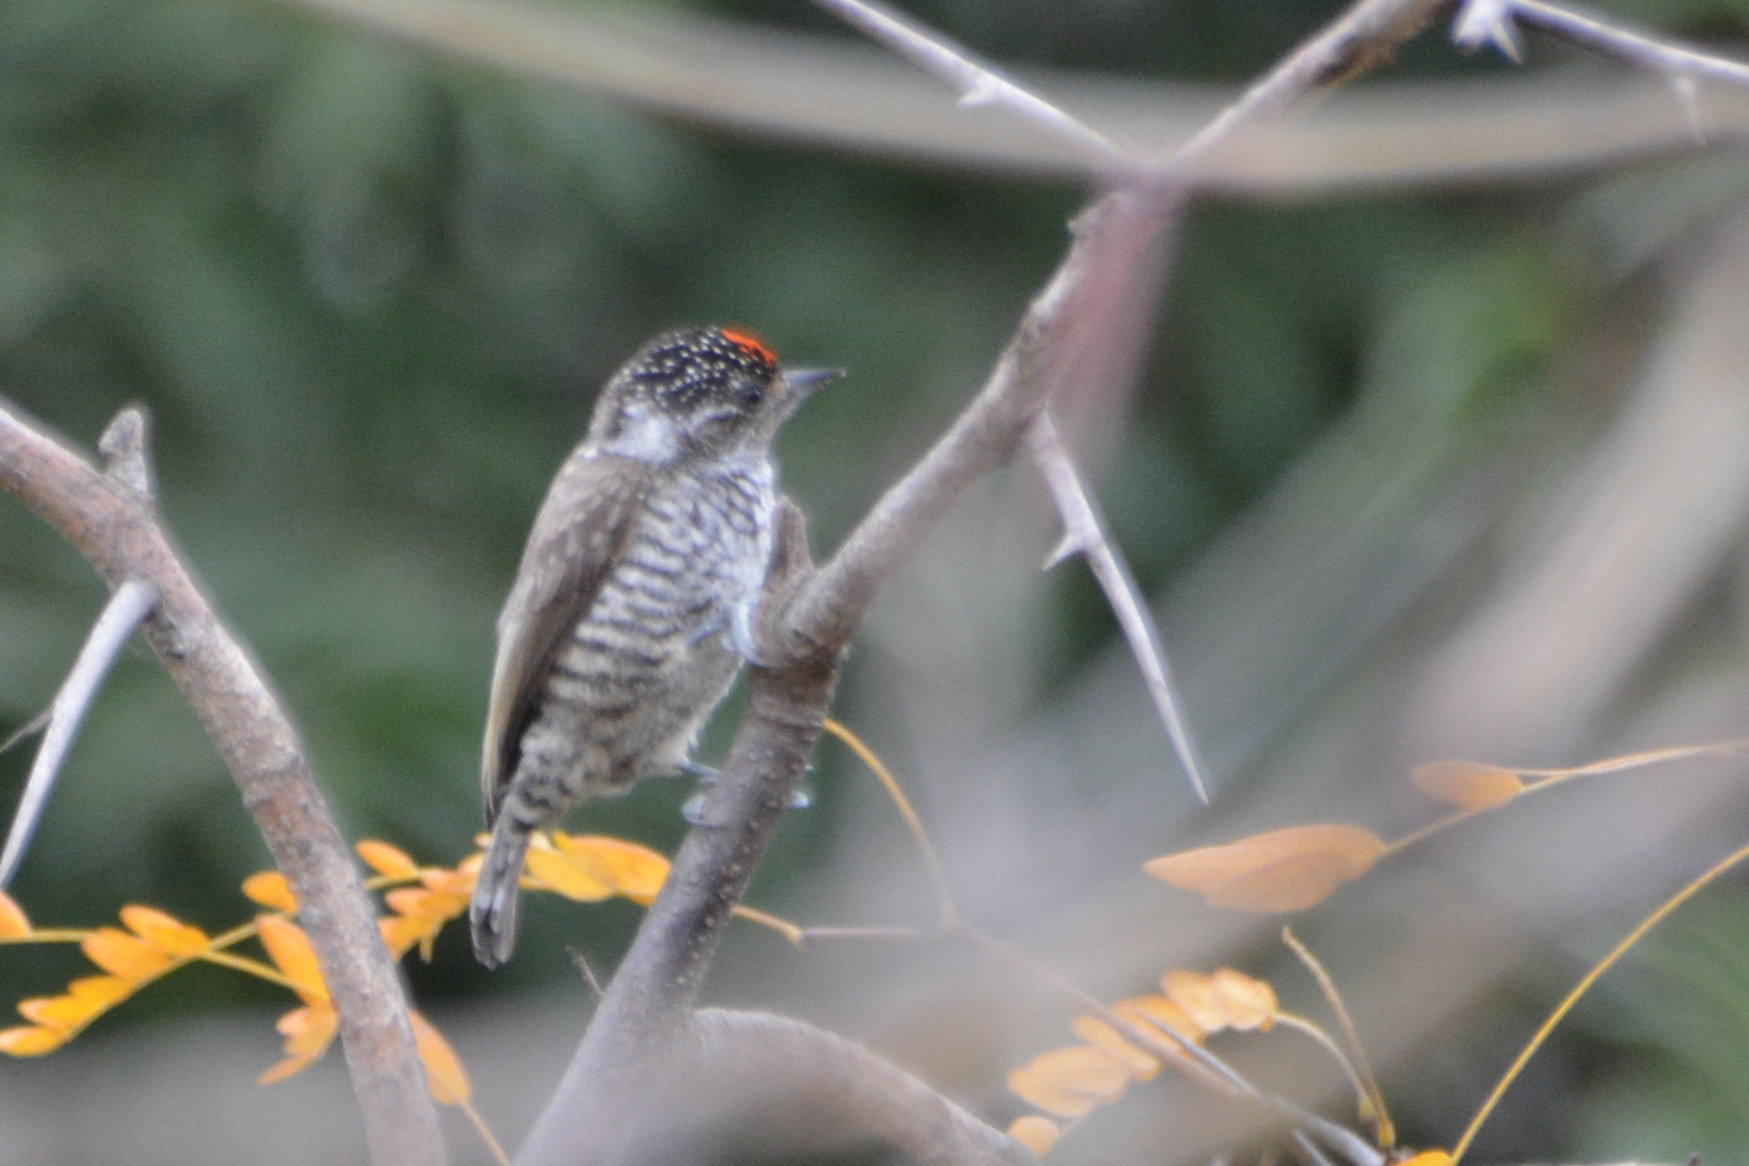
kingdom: Animalia
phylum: Chordata
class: Aves
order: Piciformes
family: Picidae
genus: Picumnus
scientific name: Picumnus cirratus
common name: White-barred piculet
